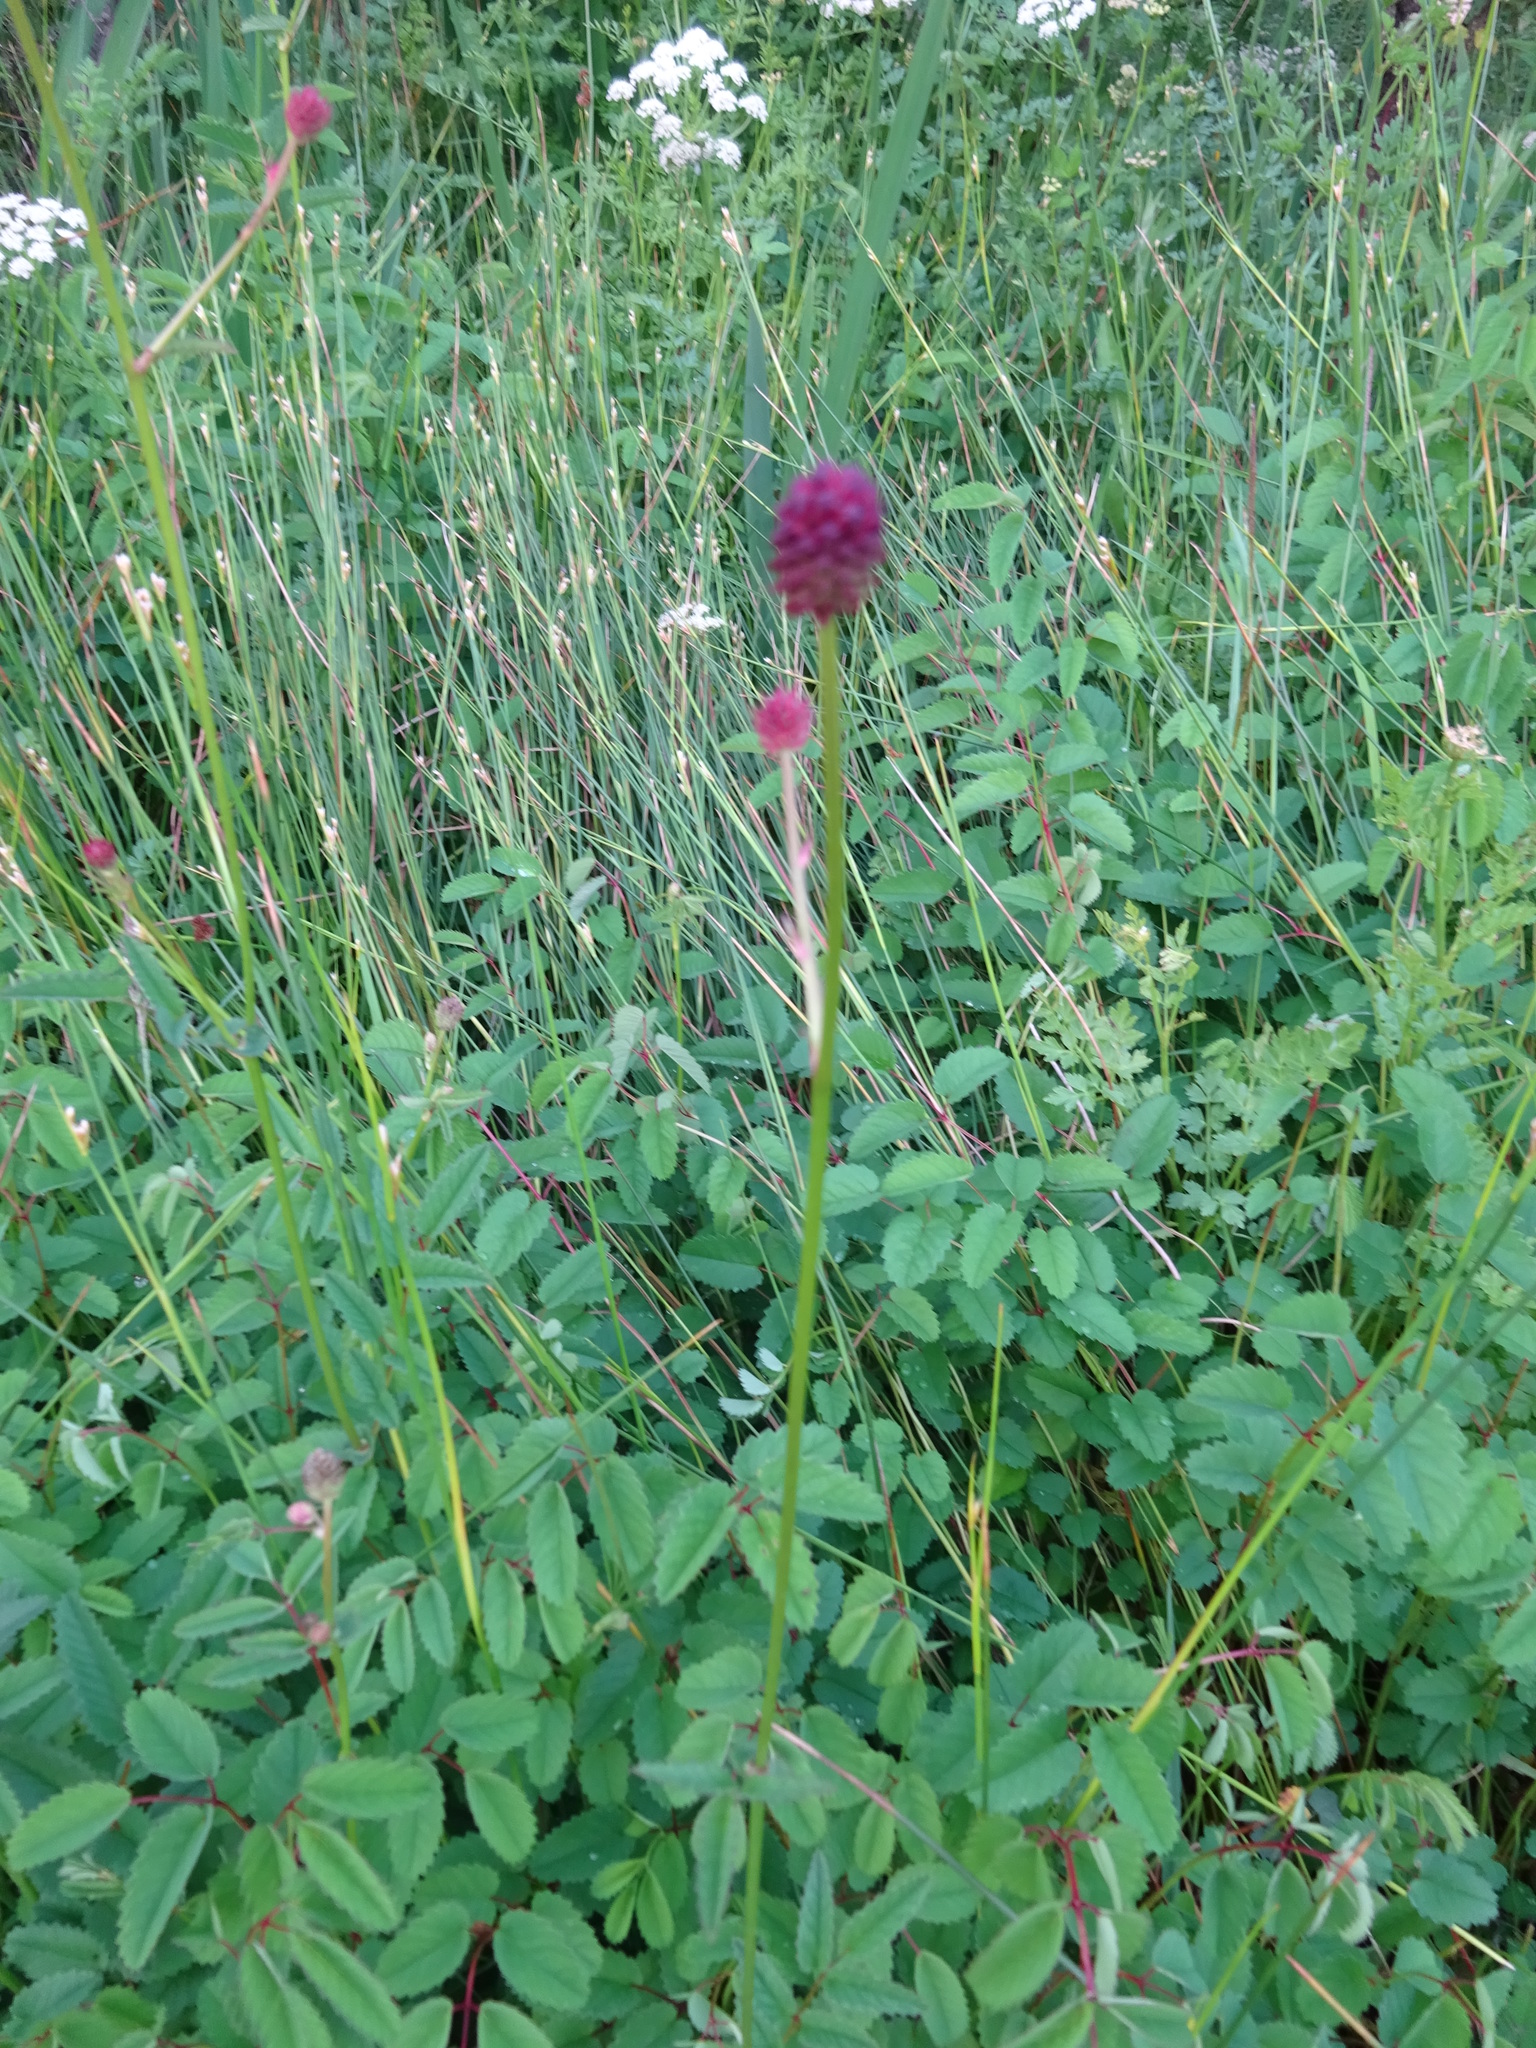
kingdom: Plantae
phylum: Tracheophyta
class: Magnoliopsida
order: Rosales
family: Rosaceae
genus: Sanguisorba
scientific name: Sanguisorba officinalis
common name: Great burnet
